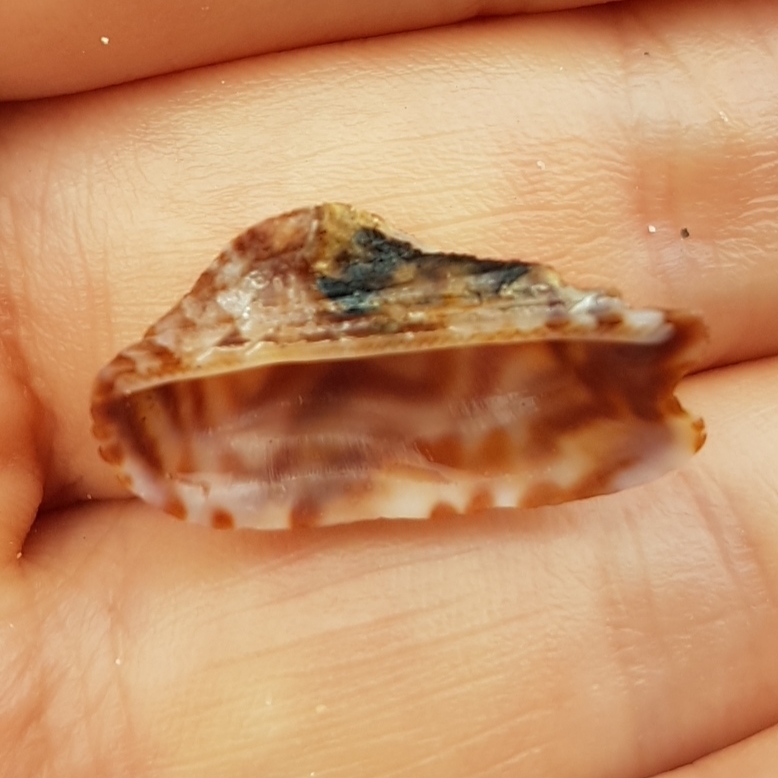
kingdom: Animalia
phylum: Mollusca
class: Bivalvia
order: Arcida
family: Arcidae
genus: Arca
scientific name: Arca noae
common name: Noah's arch
